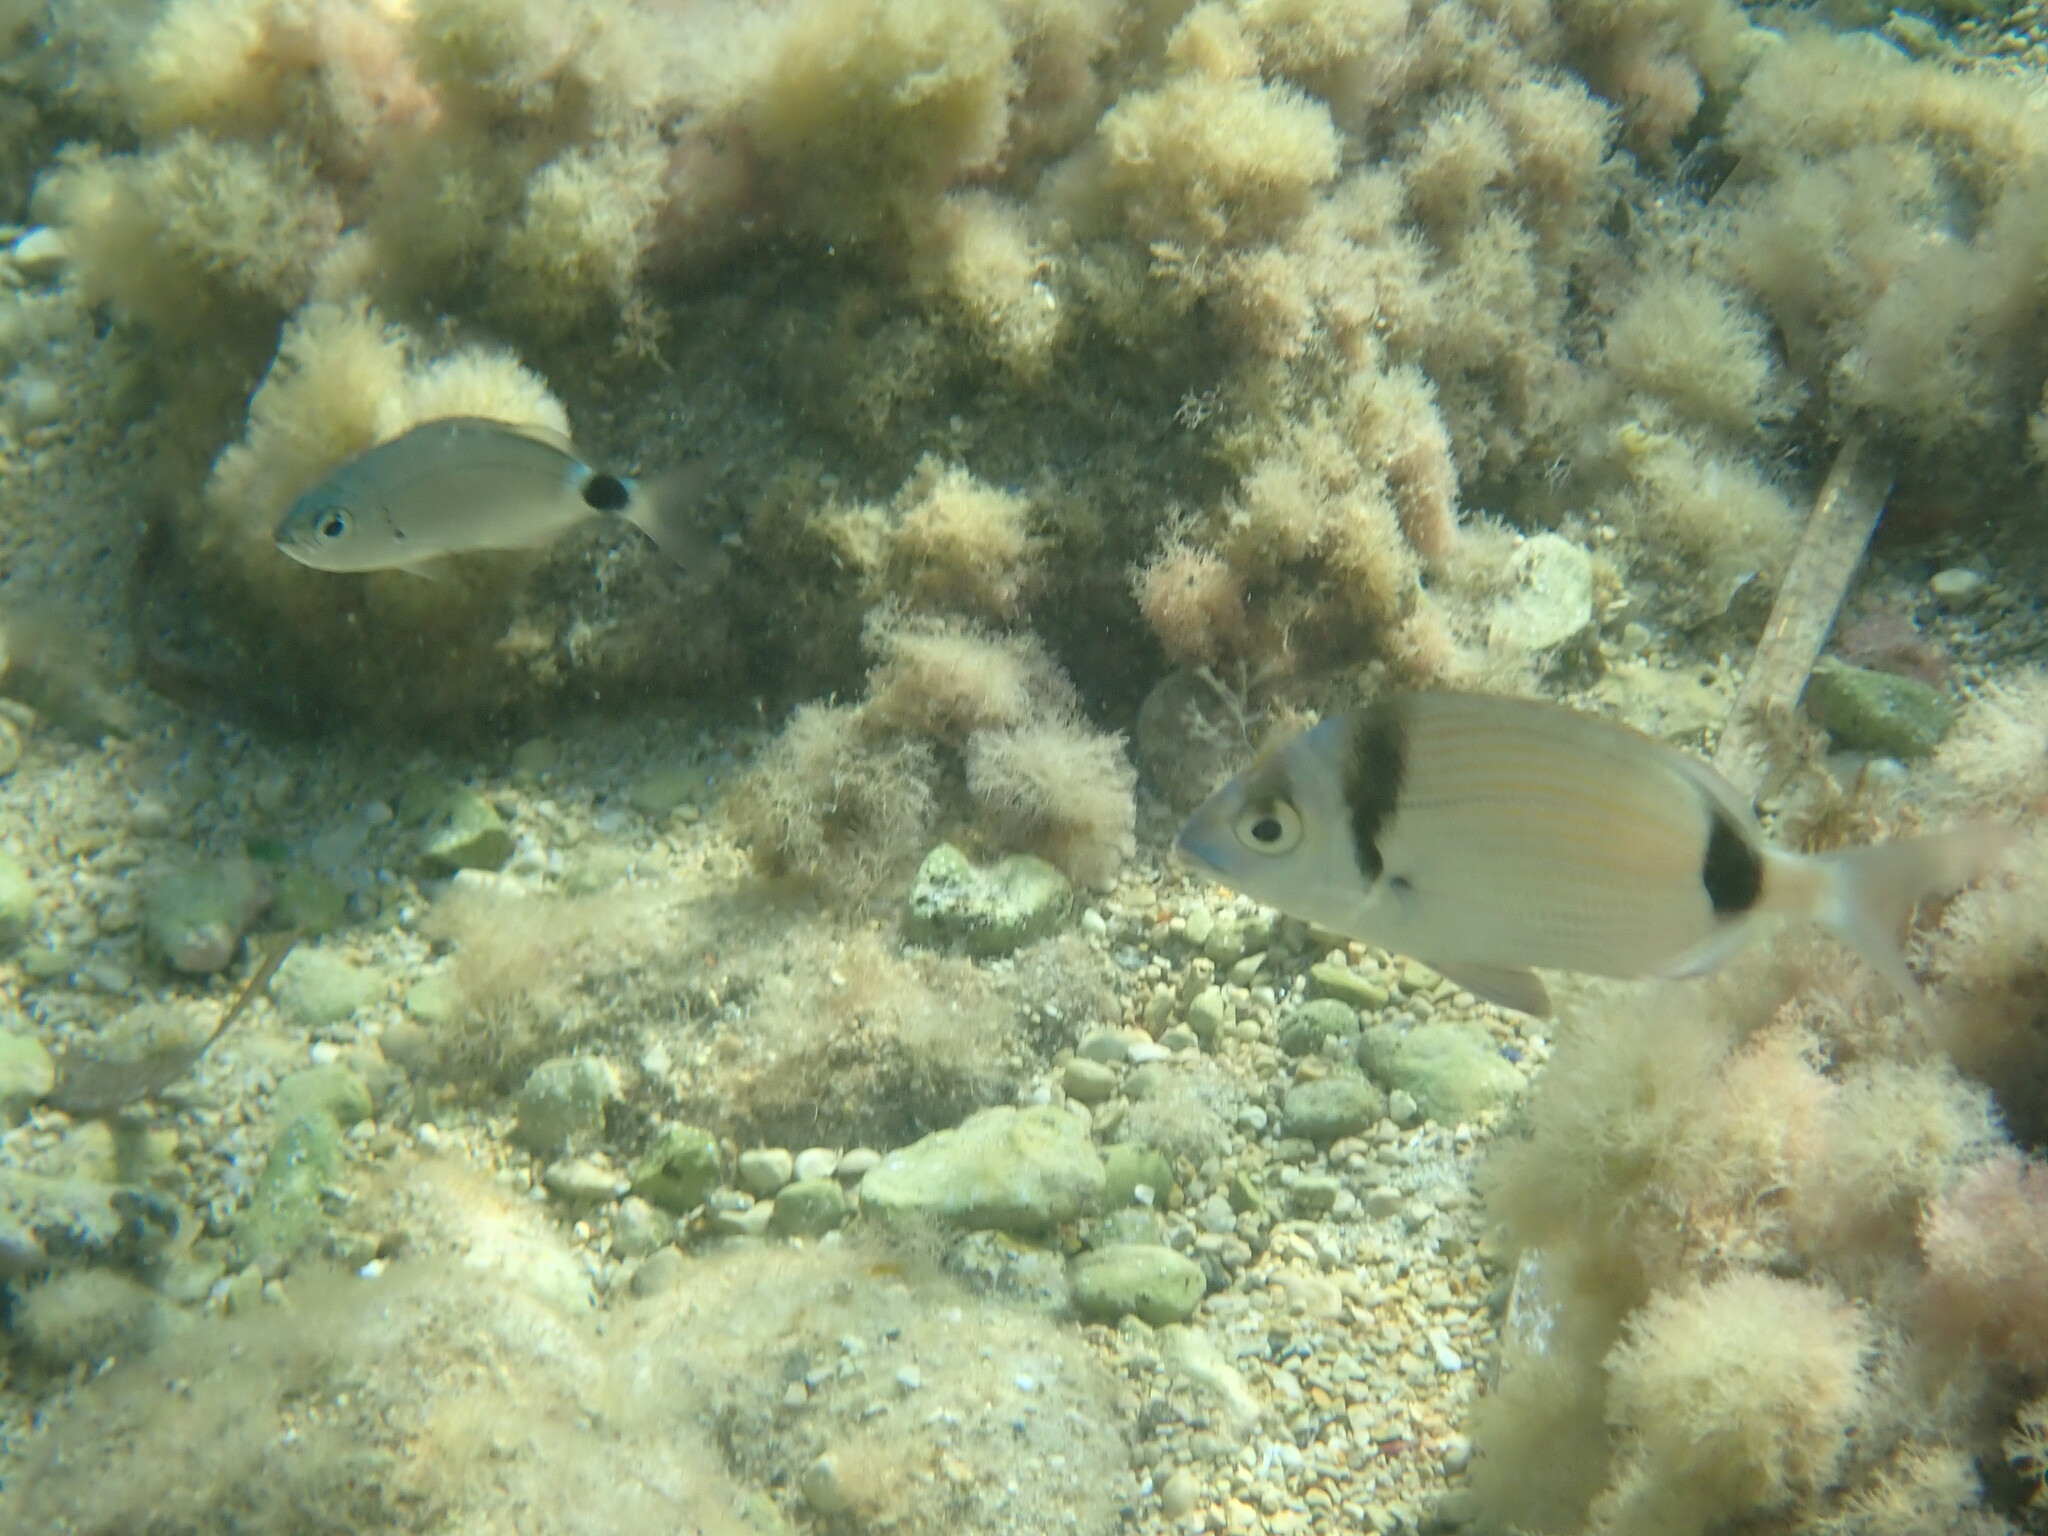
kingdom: Animalia
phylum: Chordata
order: Perciformes
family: Sparidae
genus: Diplodus
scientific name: Diplodus vulgaris
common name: Common two-banded seabream
